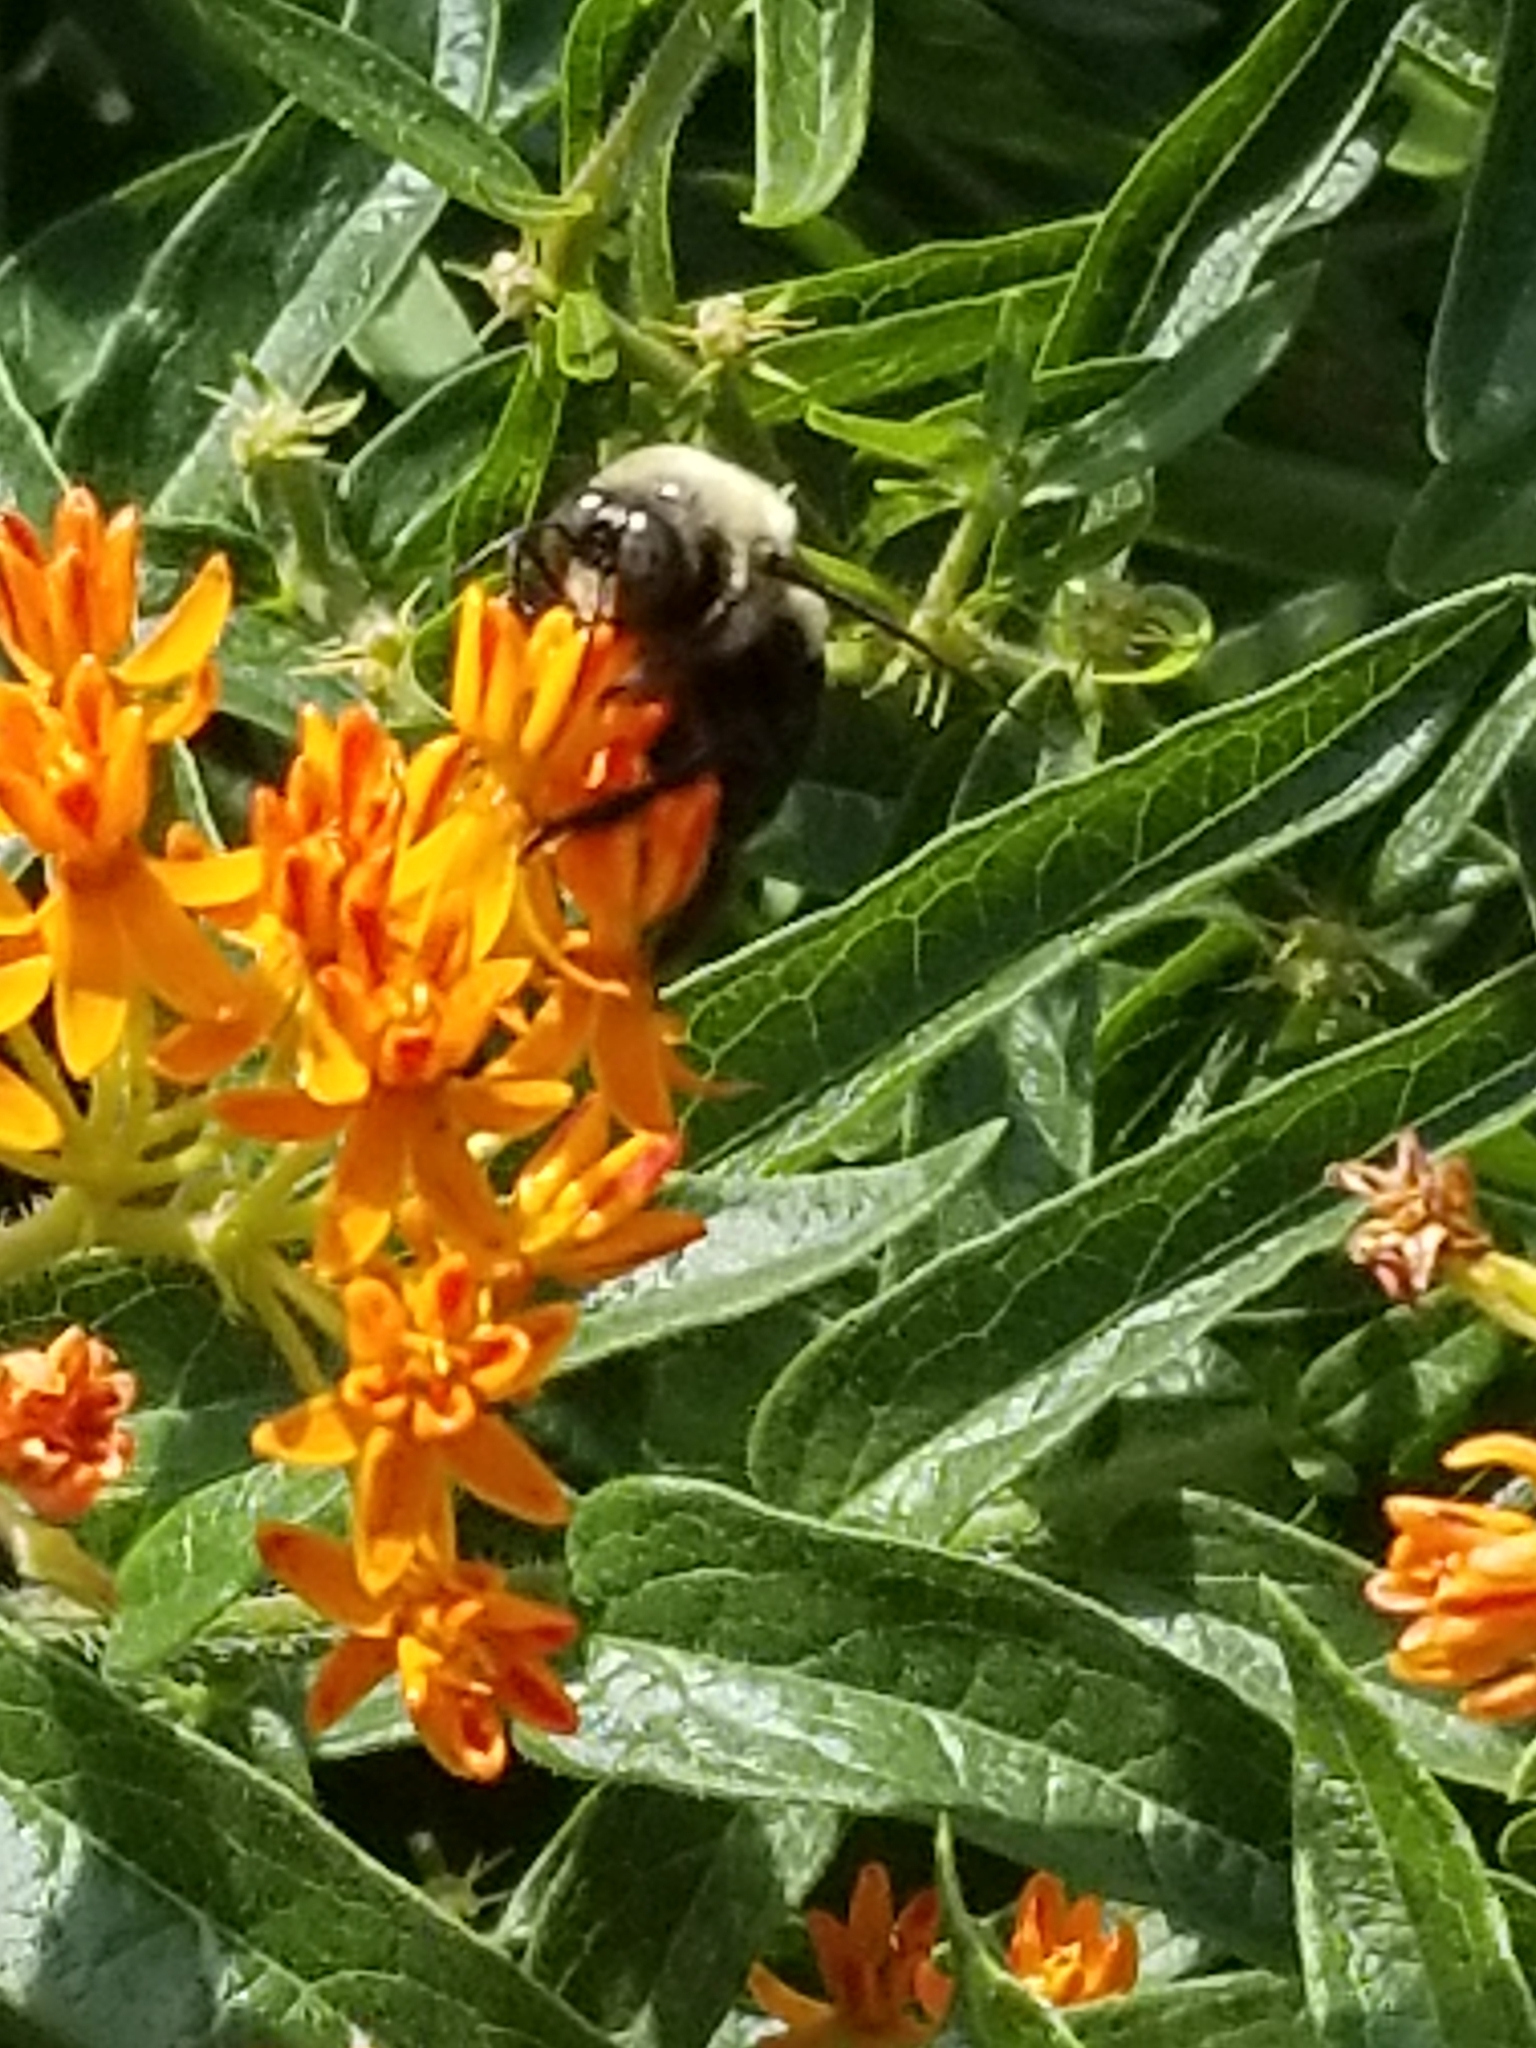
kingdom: Animalia
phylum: Arthropoda
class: Insecta
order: Hymenoptera
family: Apidae
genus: Xylocopa
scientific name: Xylocopa virginica
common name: Carpenter bee
